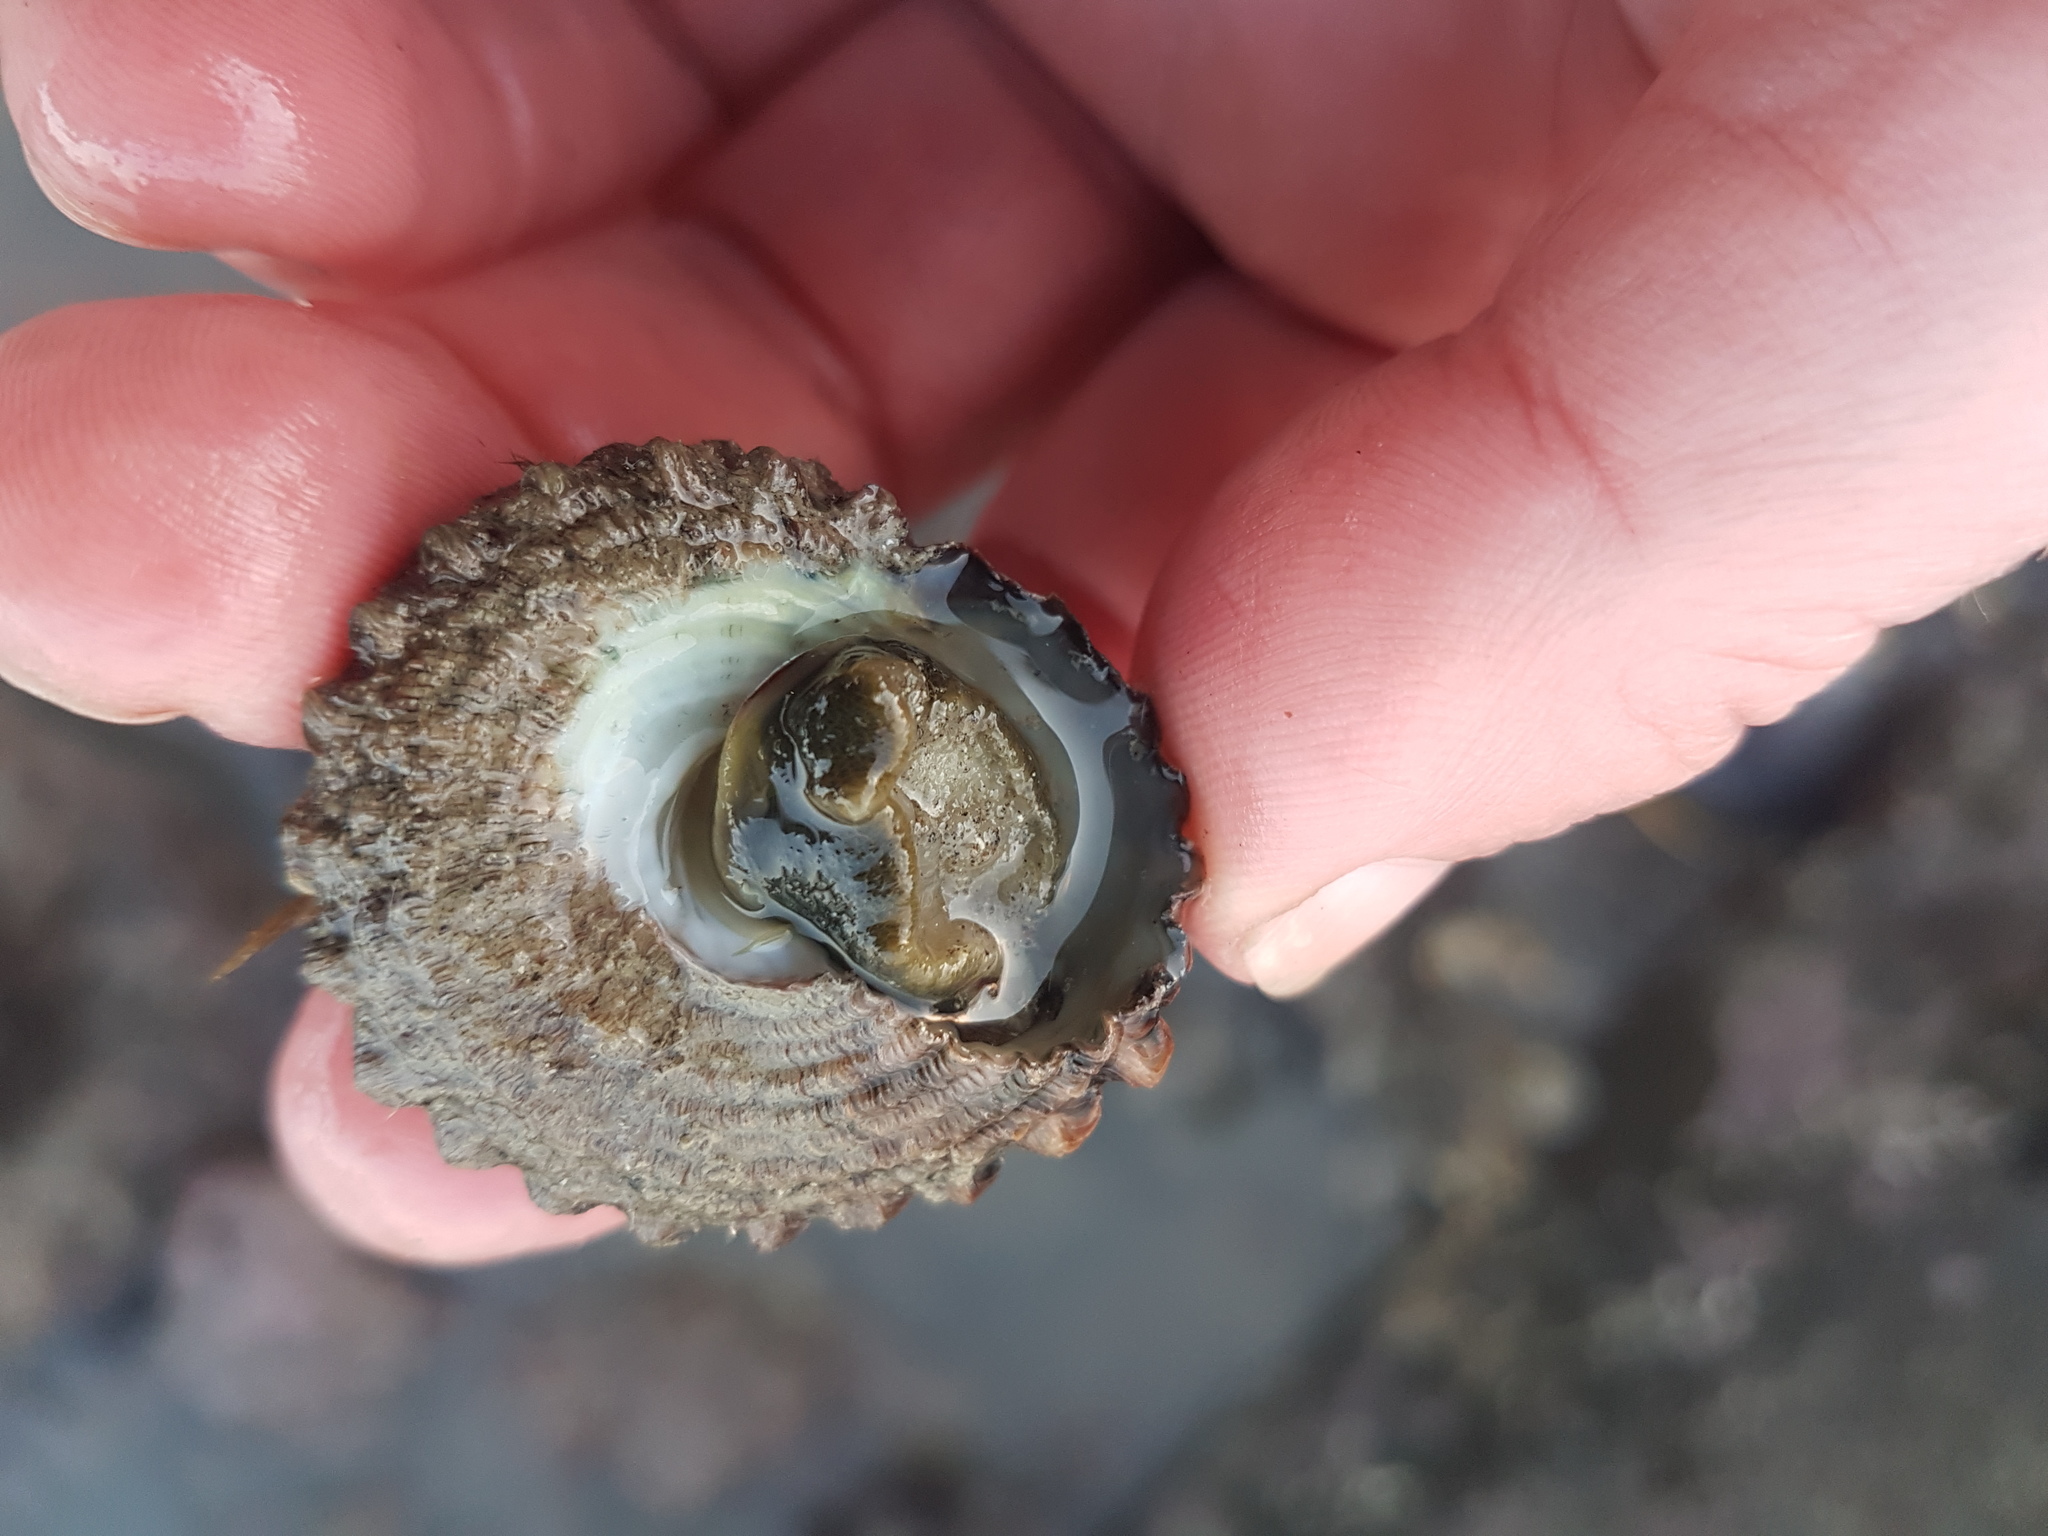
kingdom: Animalia
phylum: Mollusca
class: Gastropoda
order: Trochida
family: Turbinidae
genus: Cookia
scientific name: Cookia sulcata
